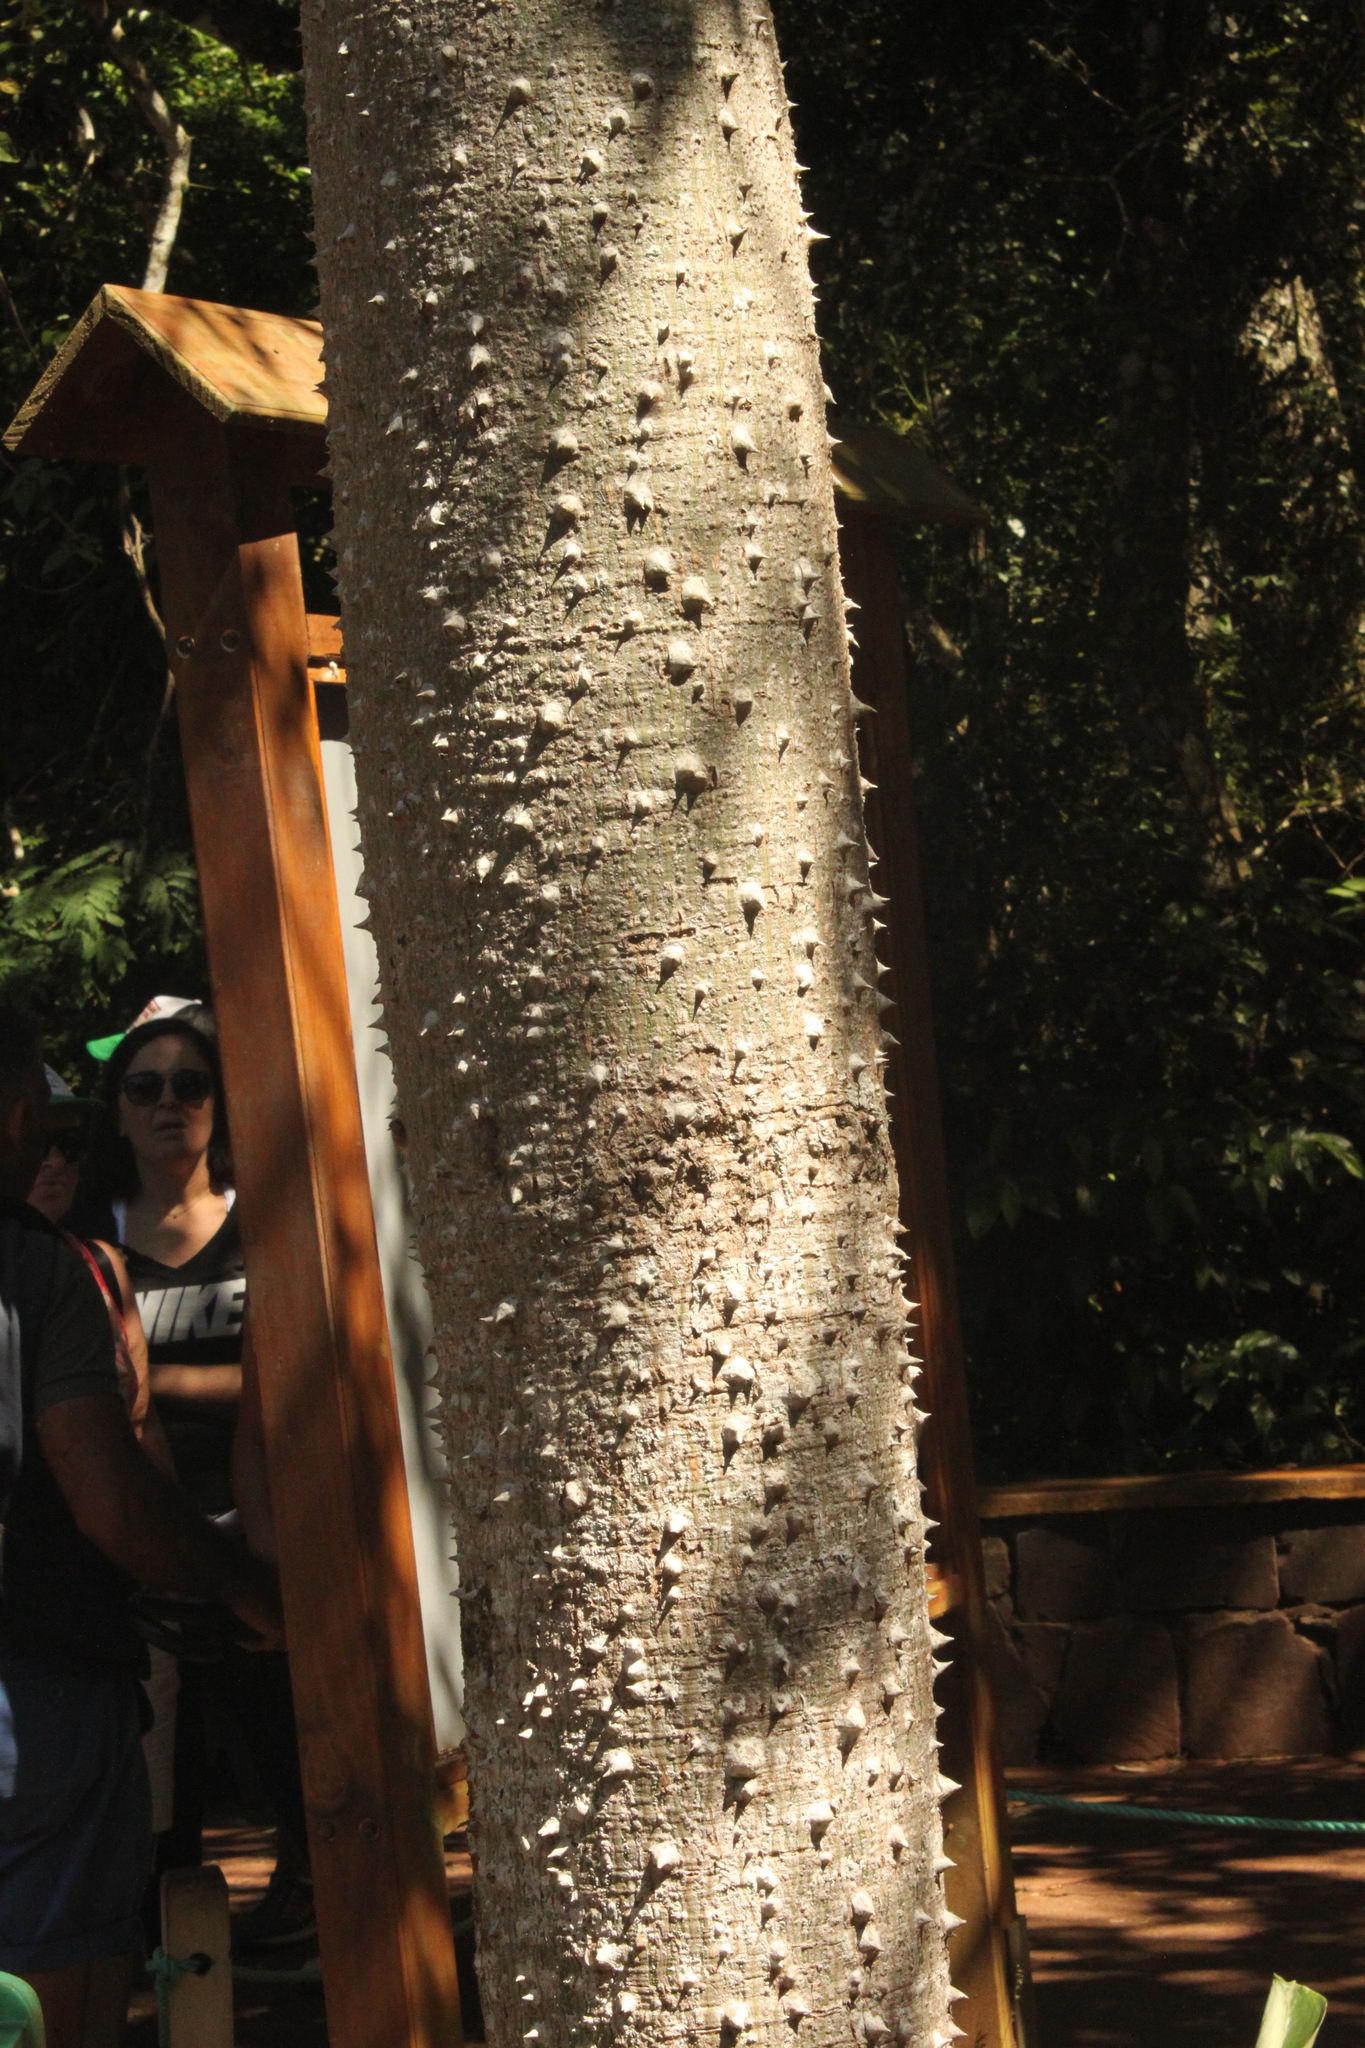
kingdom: Plantae
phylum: Tracheophyta
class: Magnoliopsida
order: Malvales
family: Malvaceae
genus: Ceiba
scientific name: Ceiba speciosa
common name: Silk-floss tree
